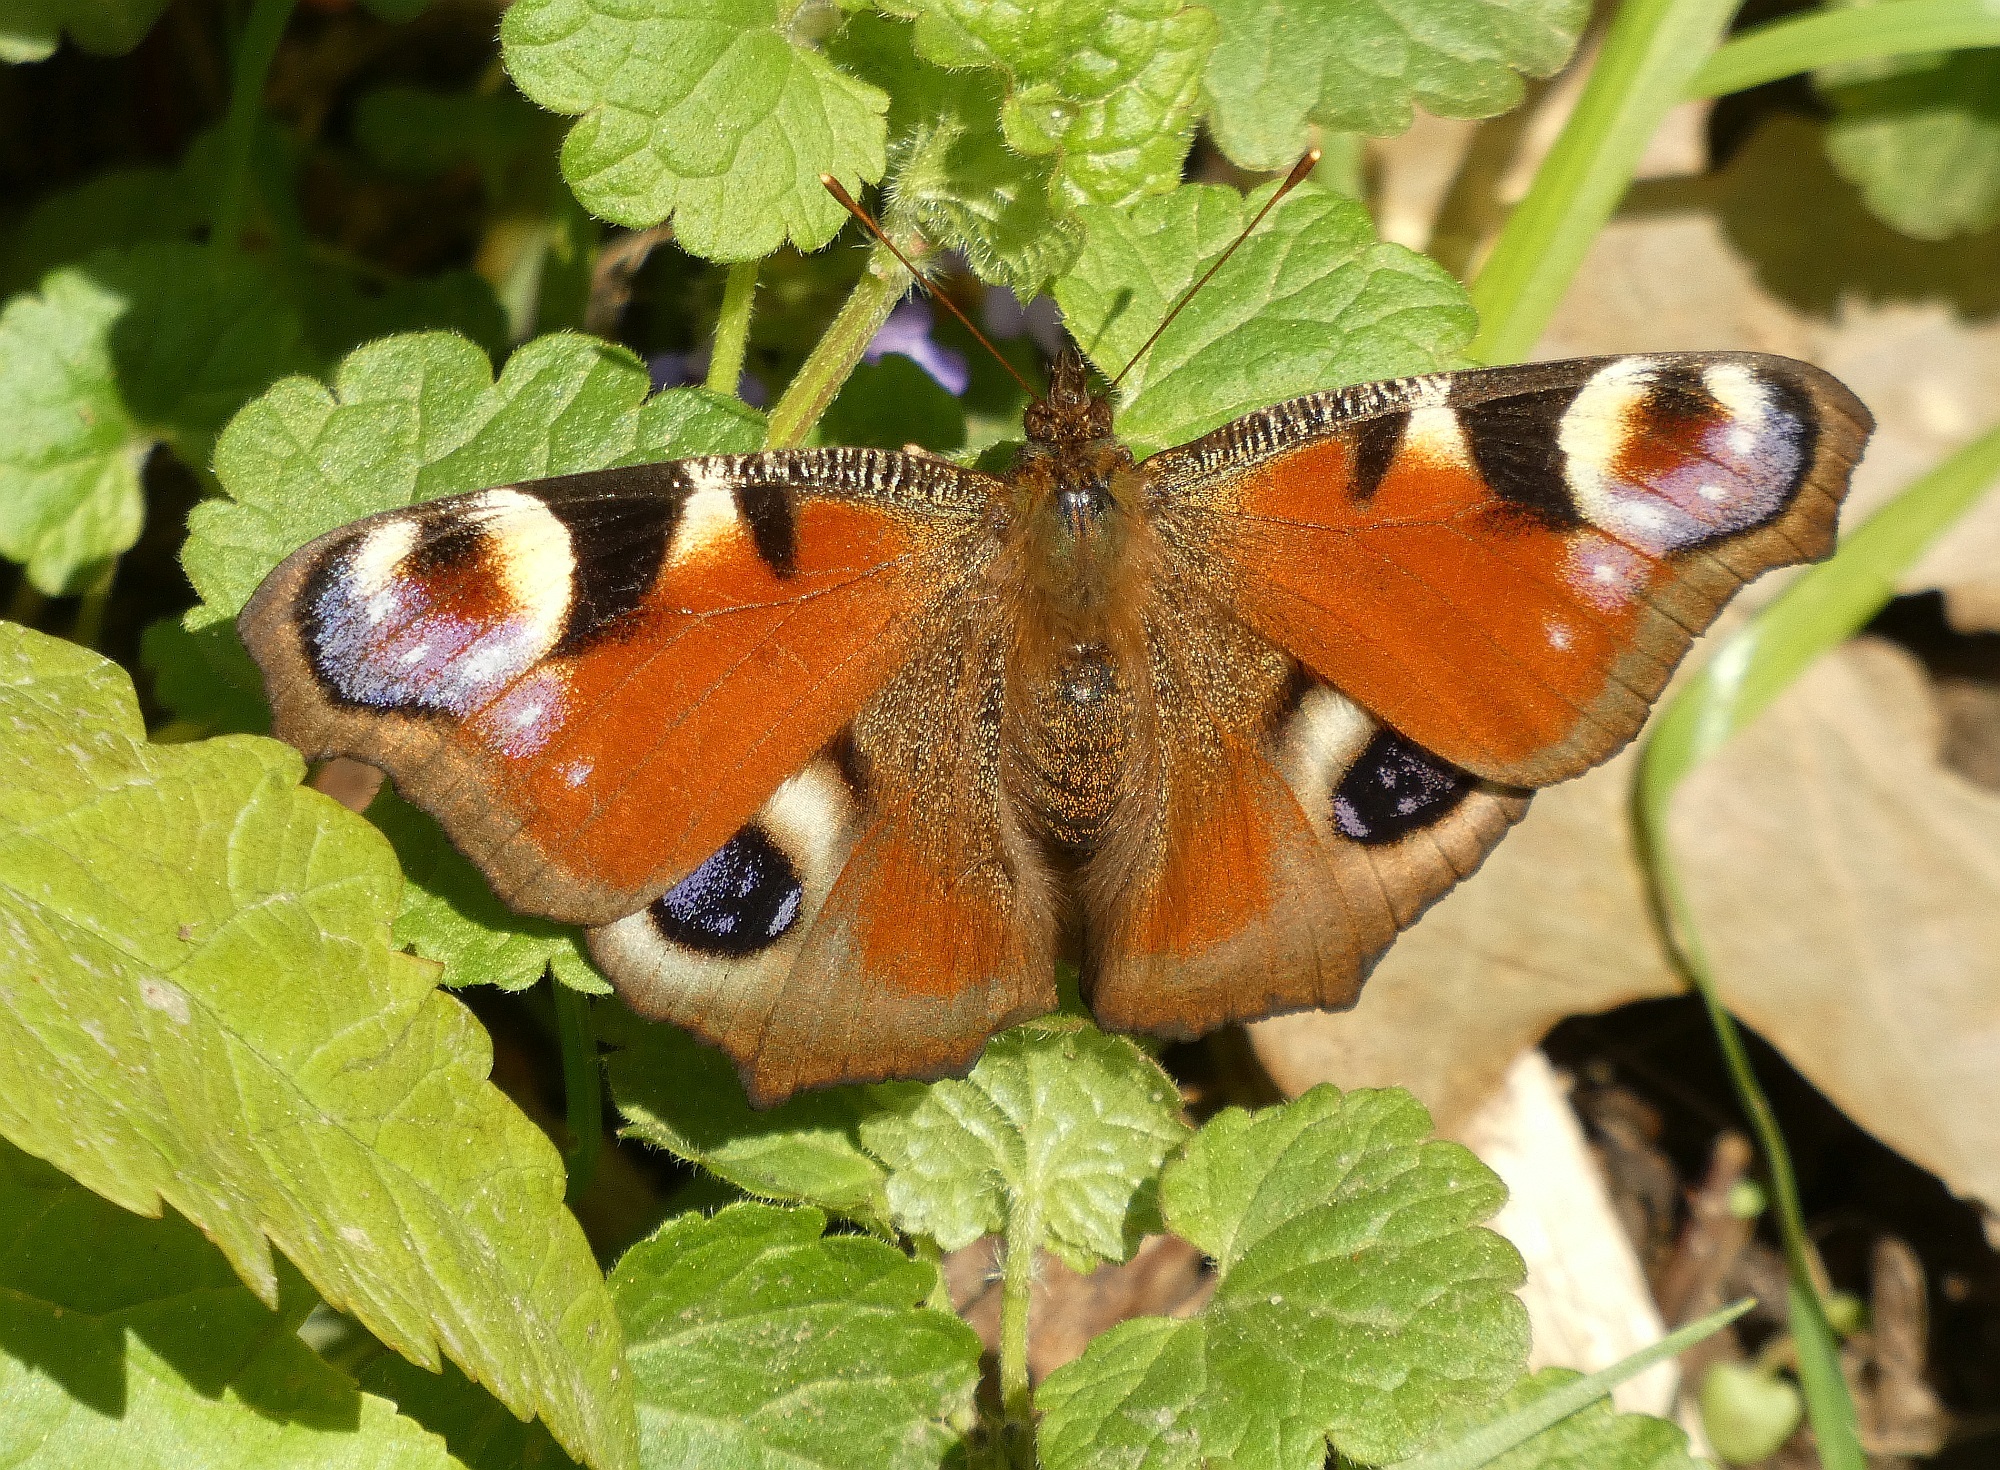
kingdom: Animalia
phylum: Arthropoda
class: Insecta
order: Lepidoptera
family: Nymphalidae
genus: Aglais
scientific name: Aglais io
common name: Peacock
